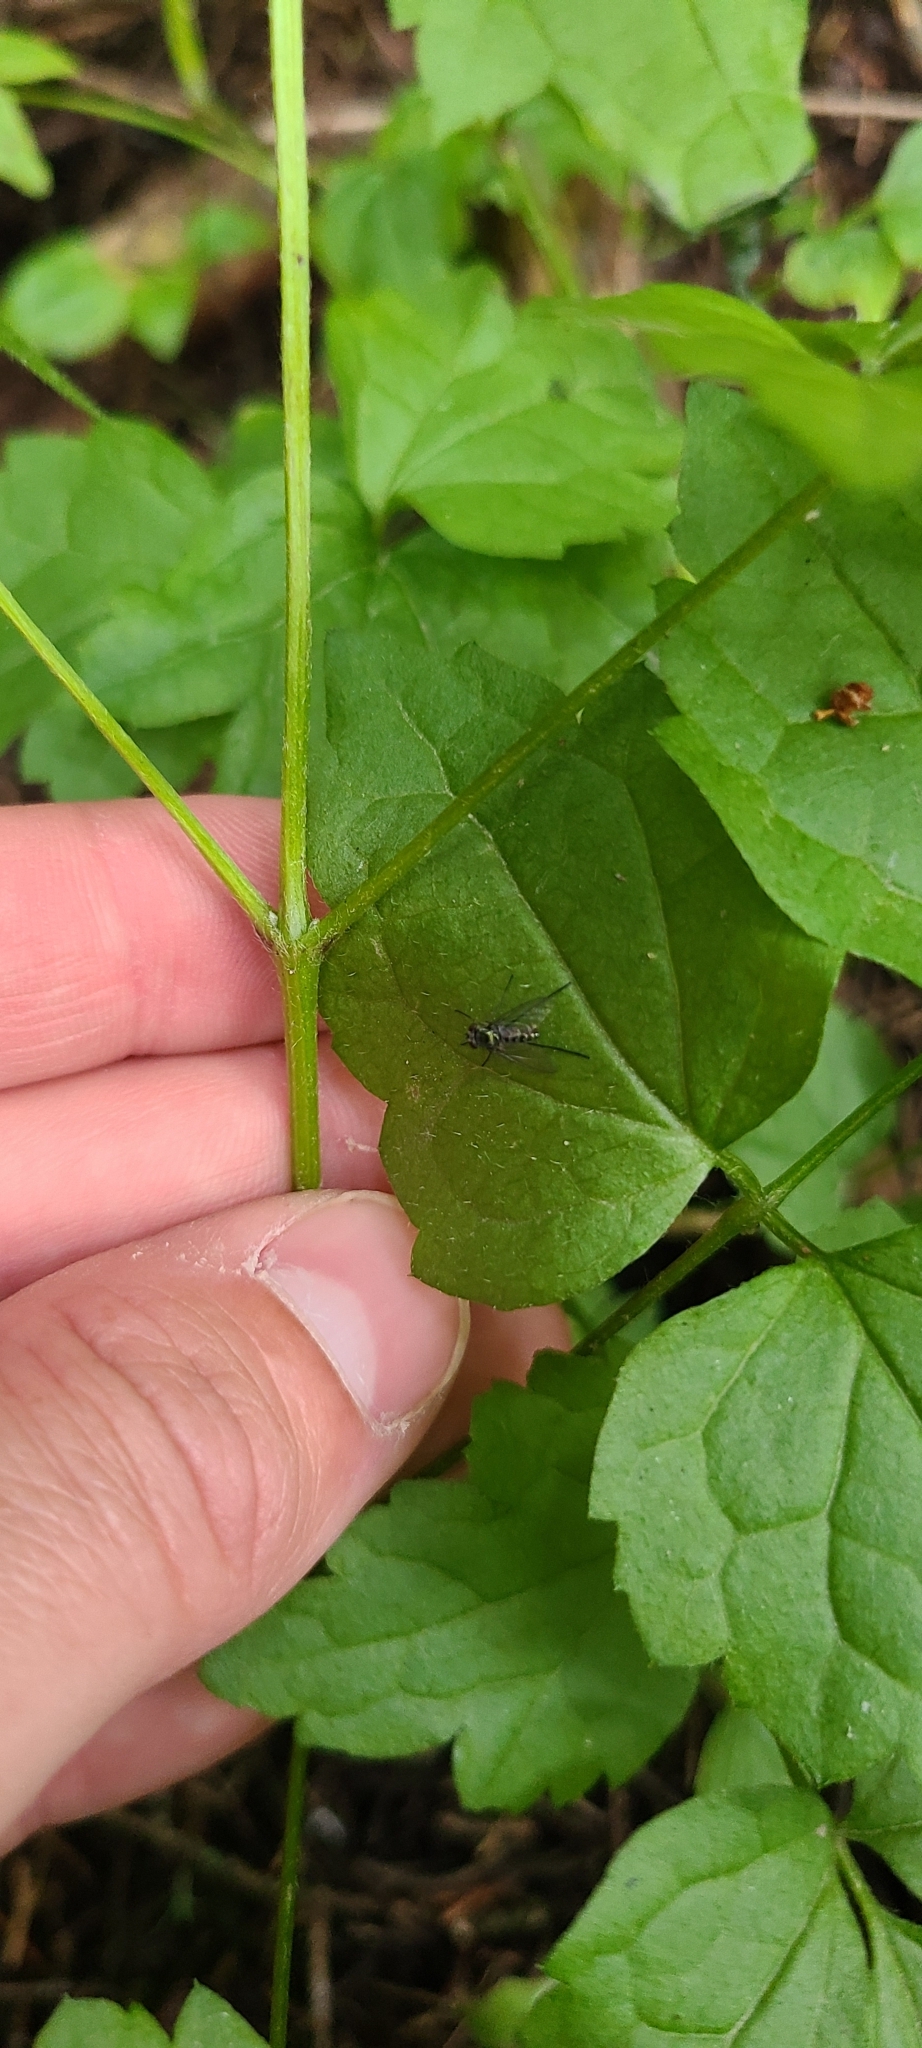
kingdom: Plantae
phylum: Tracheophyta
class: Magnoliopsida
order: Ranunculales
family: Ranunculaceae
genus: Clematis
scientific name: Clematis vitalba
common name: Evergreen clematis
